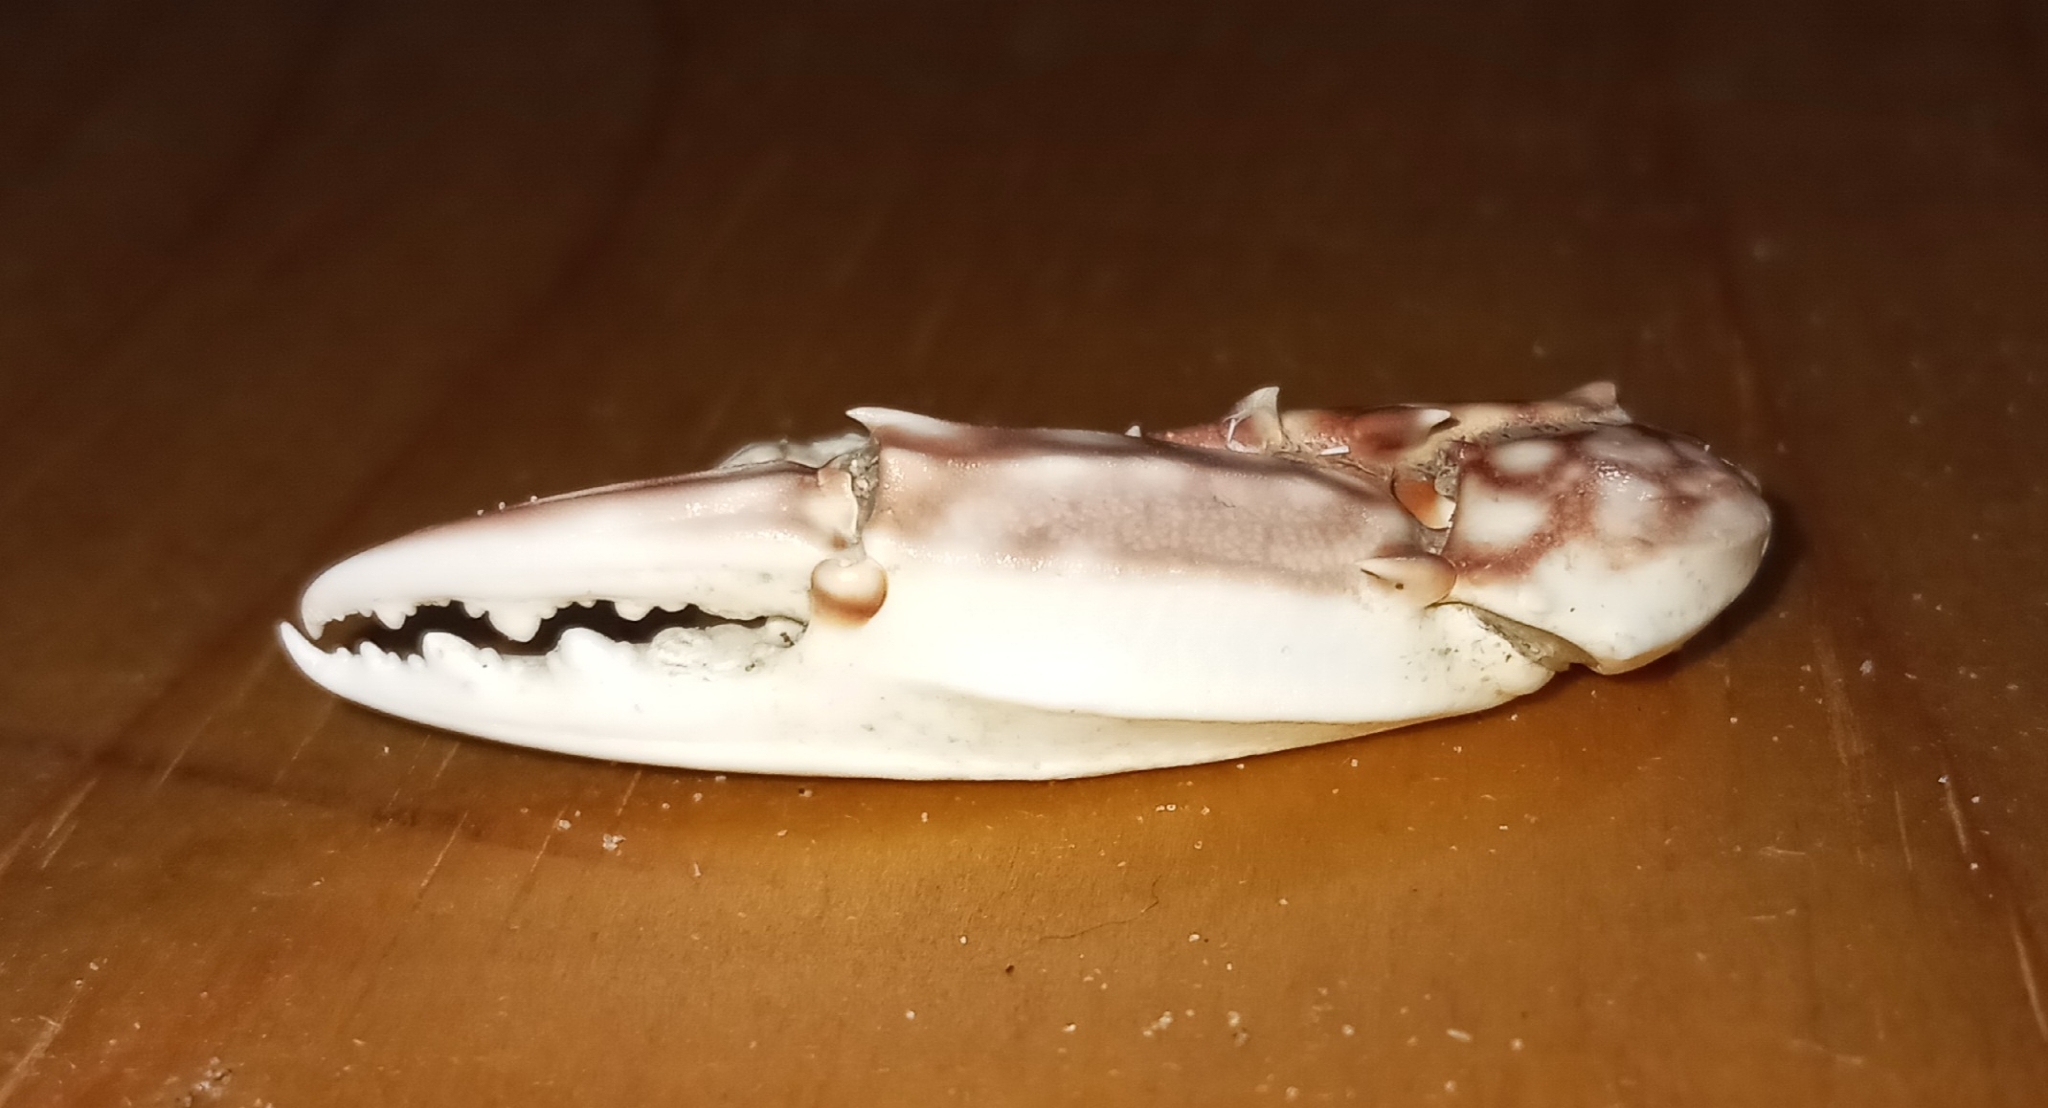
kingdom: Animalia
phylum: Arthropoda
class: Malacostraca
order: Decapoda
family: Portunidae
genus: Arenaeus
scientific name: Arenaeus cribrarius
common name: Speckled crab
